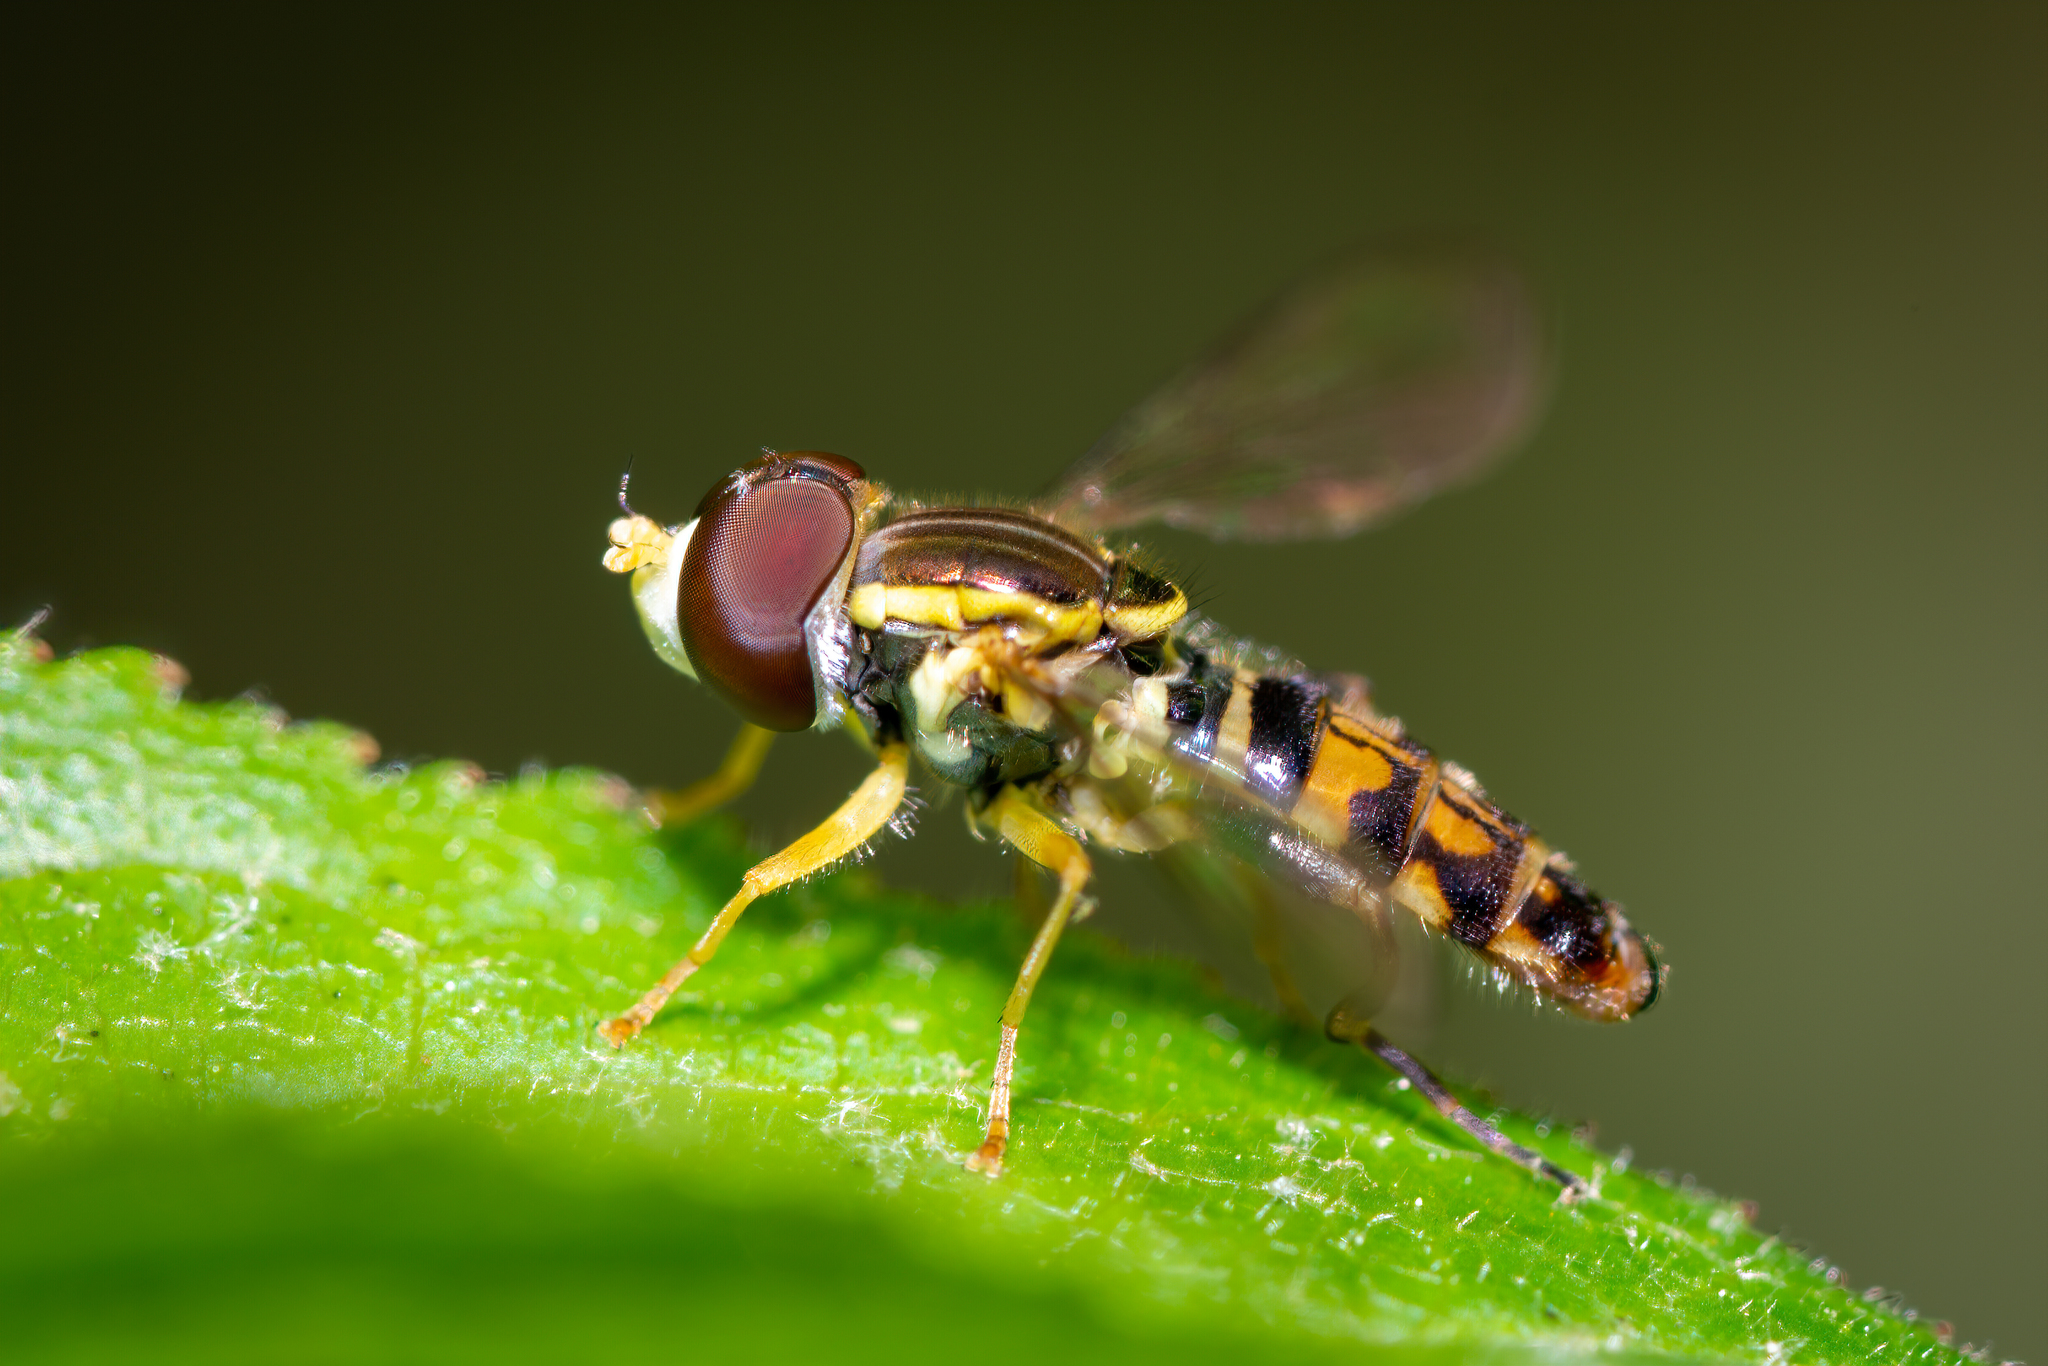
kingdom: Animalia
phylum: Arthropoda
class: Insecta
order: Diptera
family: Syrphidae
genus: Toxomerus
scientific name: Toxomerus geminatus
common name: Eastern calligrapher
